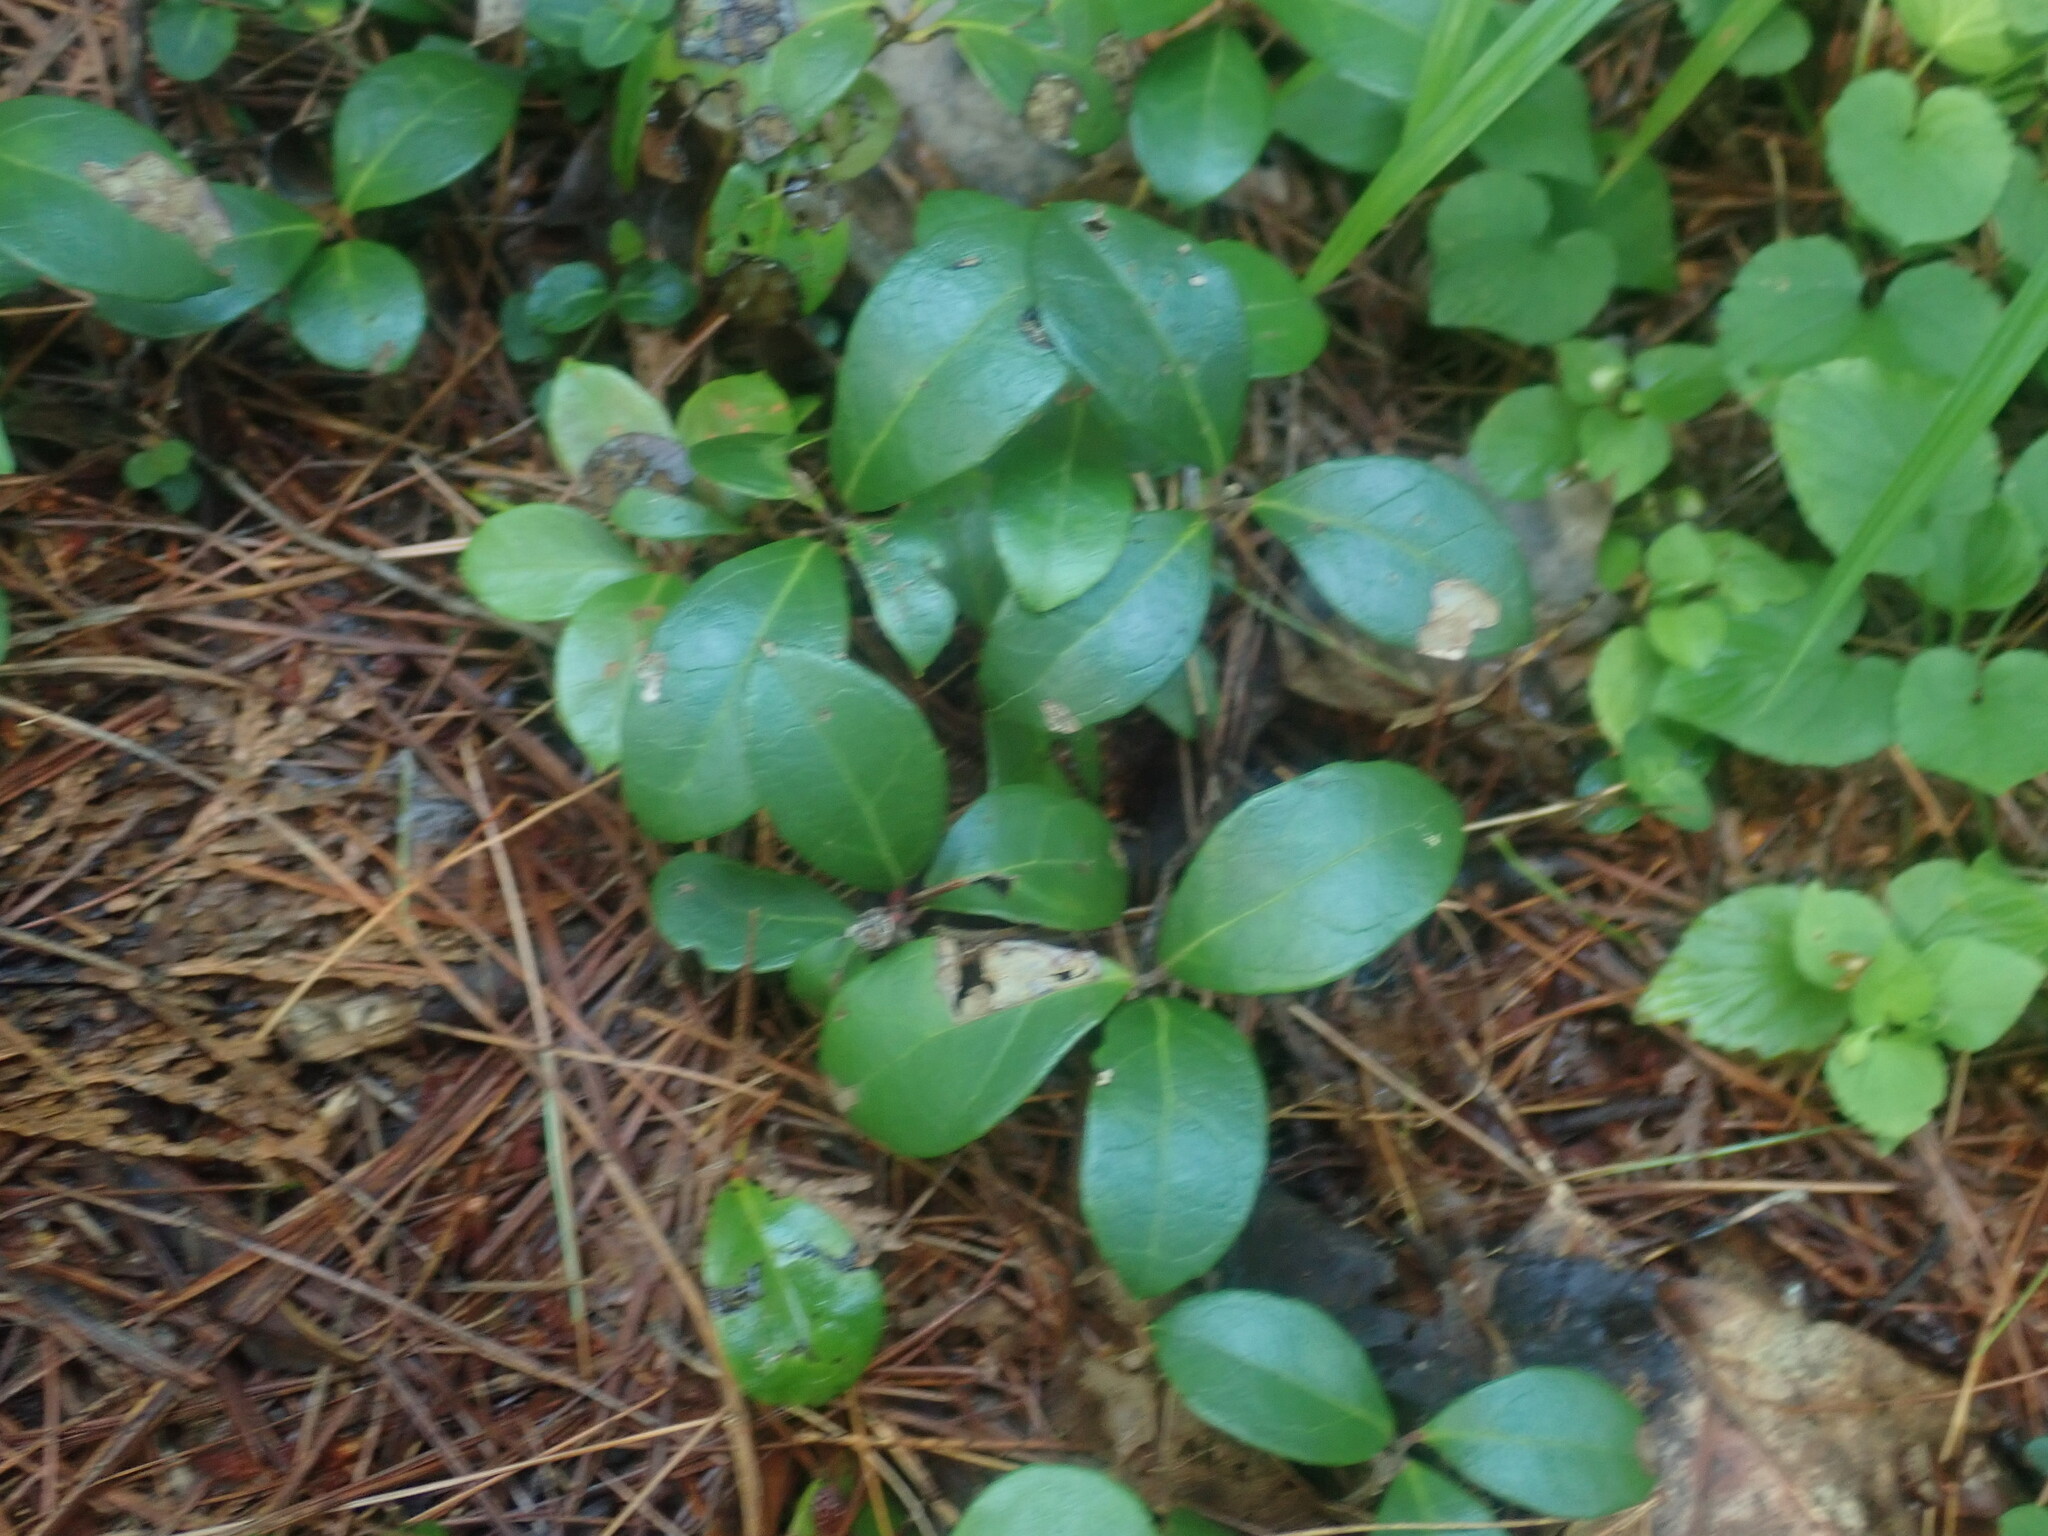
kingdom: Plantae
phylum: Tracheophyta
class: Magnoliopsida
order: Ericales
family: Ericaceae
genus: Gaultheria
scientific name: Gaultheria procumbens
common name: Checkerberry
